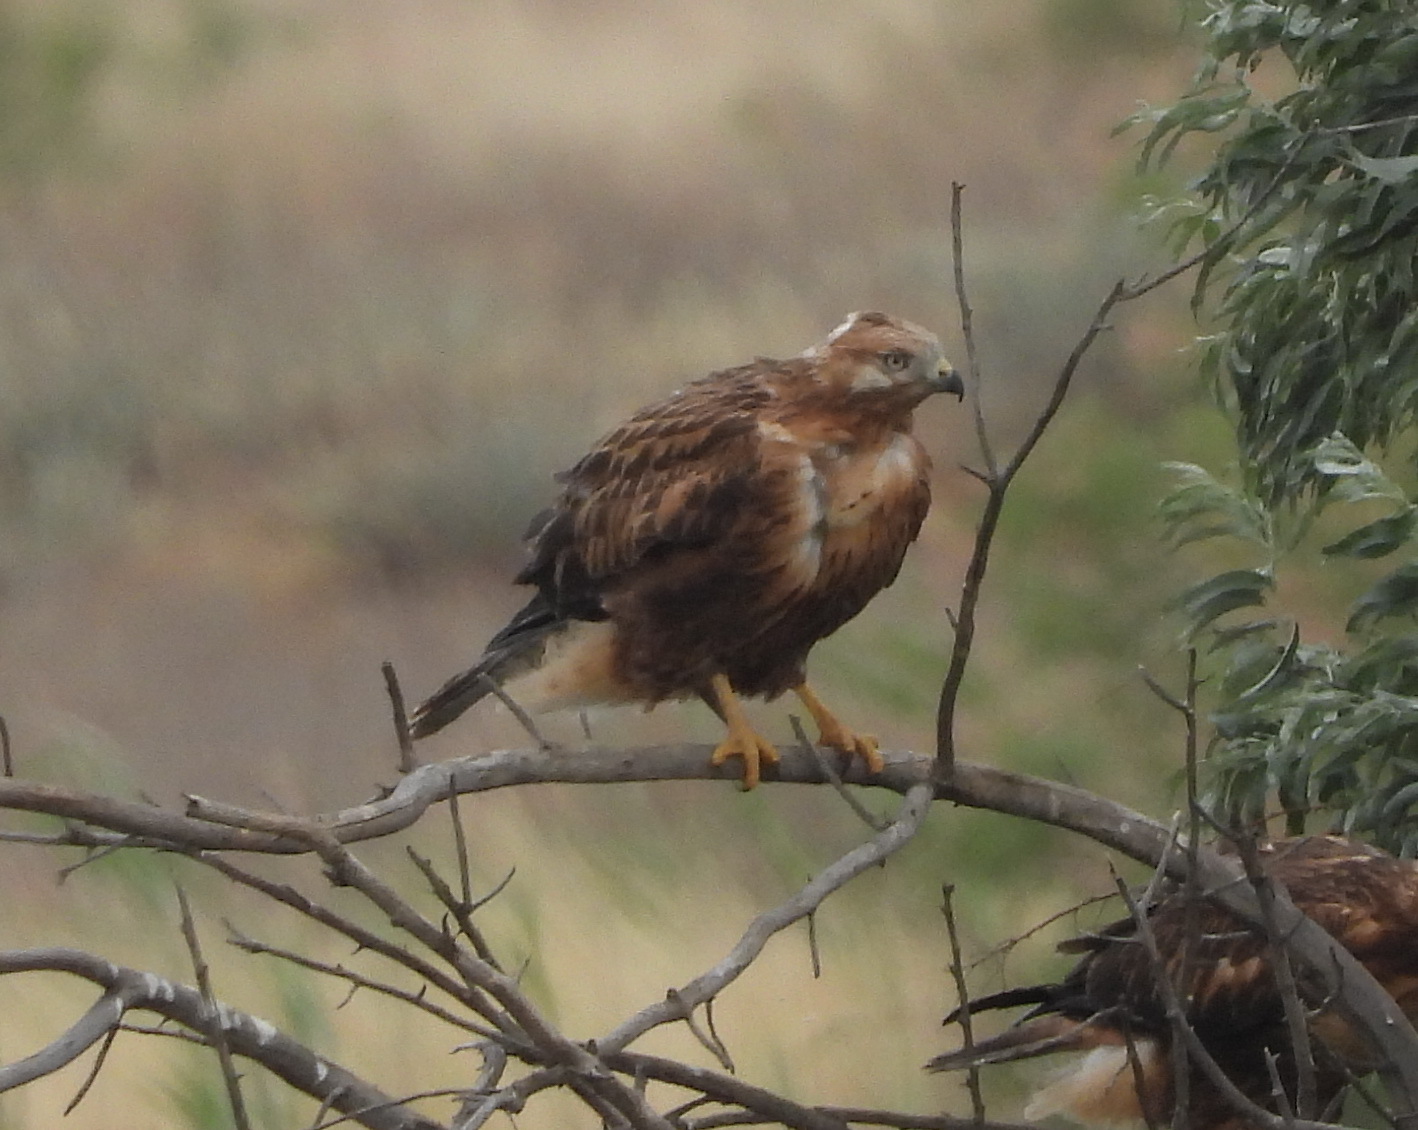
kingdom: Animalia
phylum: Chordata
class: Aves
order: Accipitriformes
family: Accipitridae
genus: Buteo
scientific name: Buteo rufinus
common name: Long-legged buzzard
